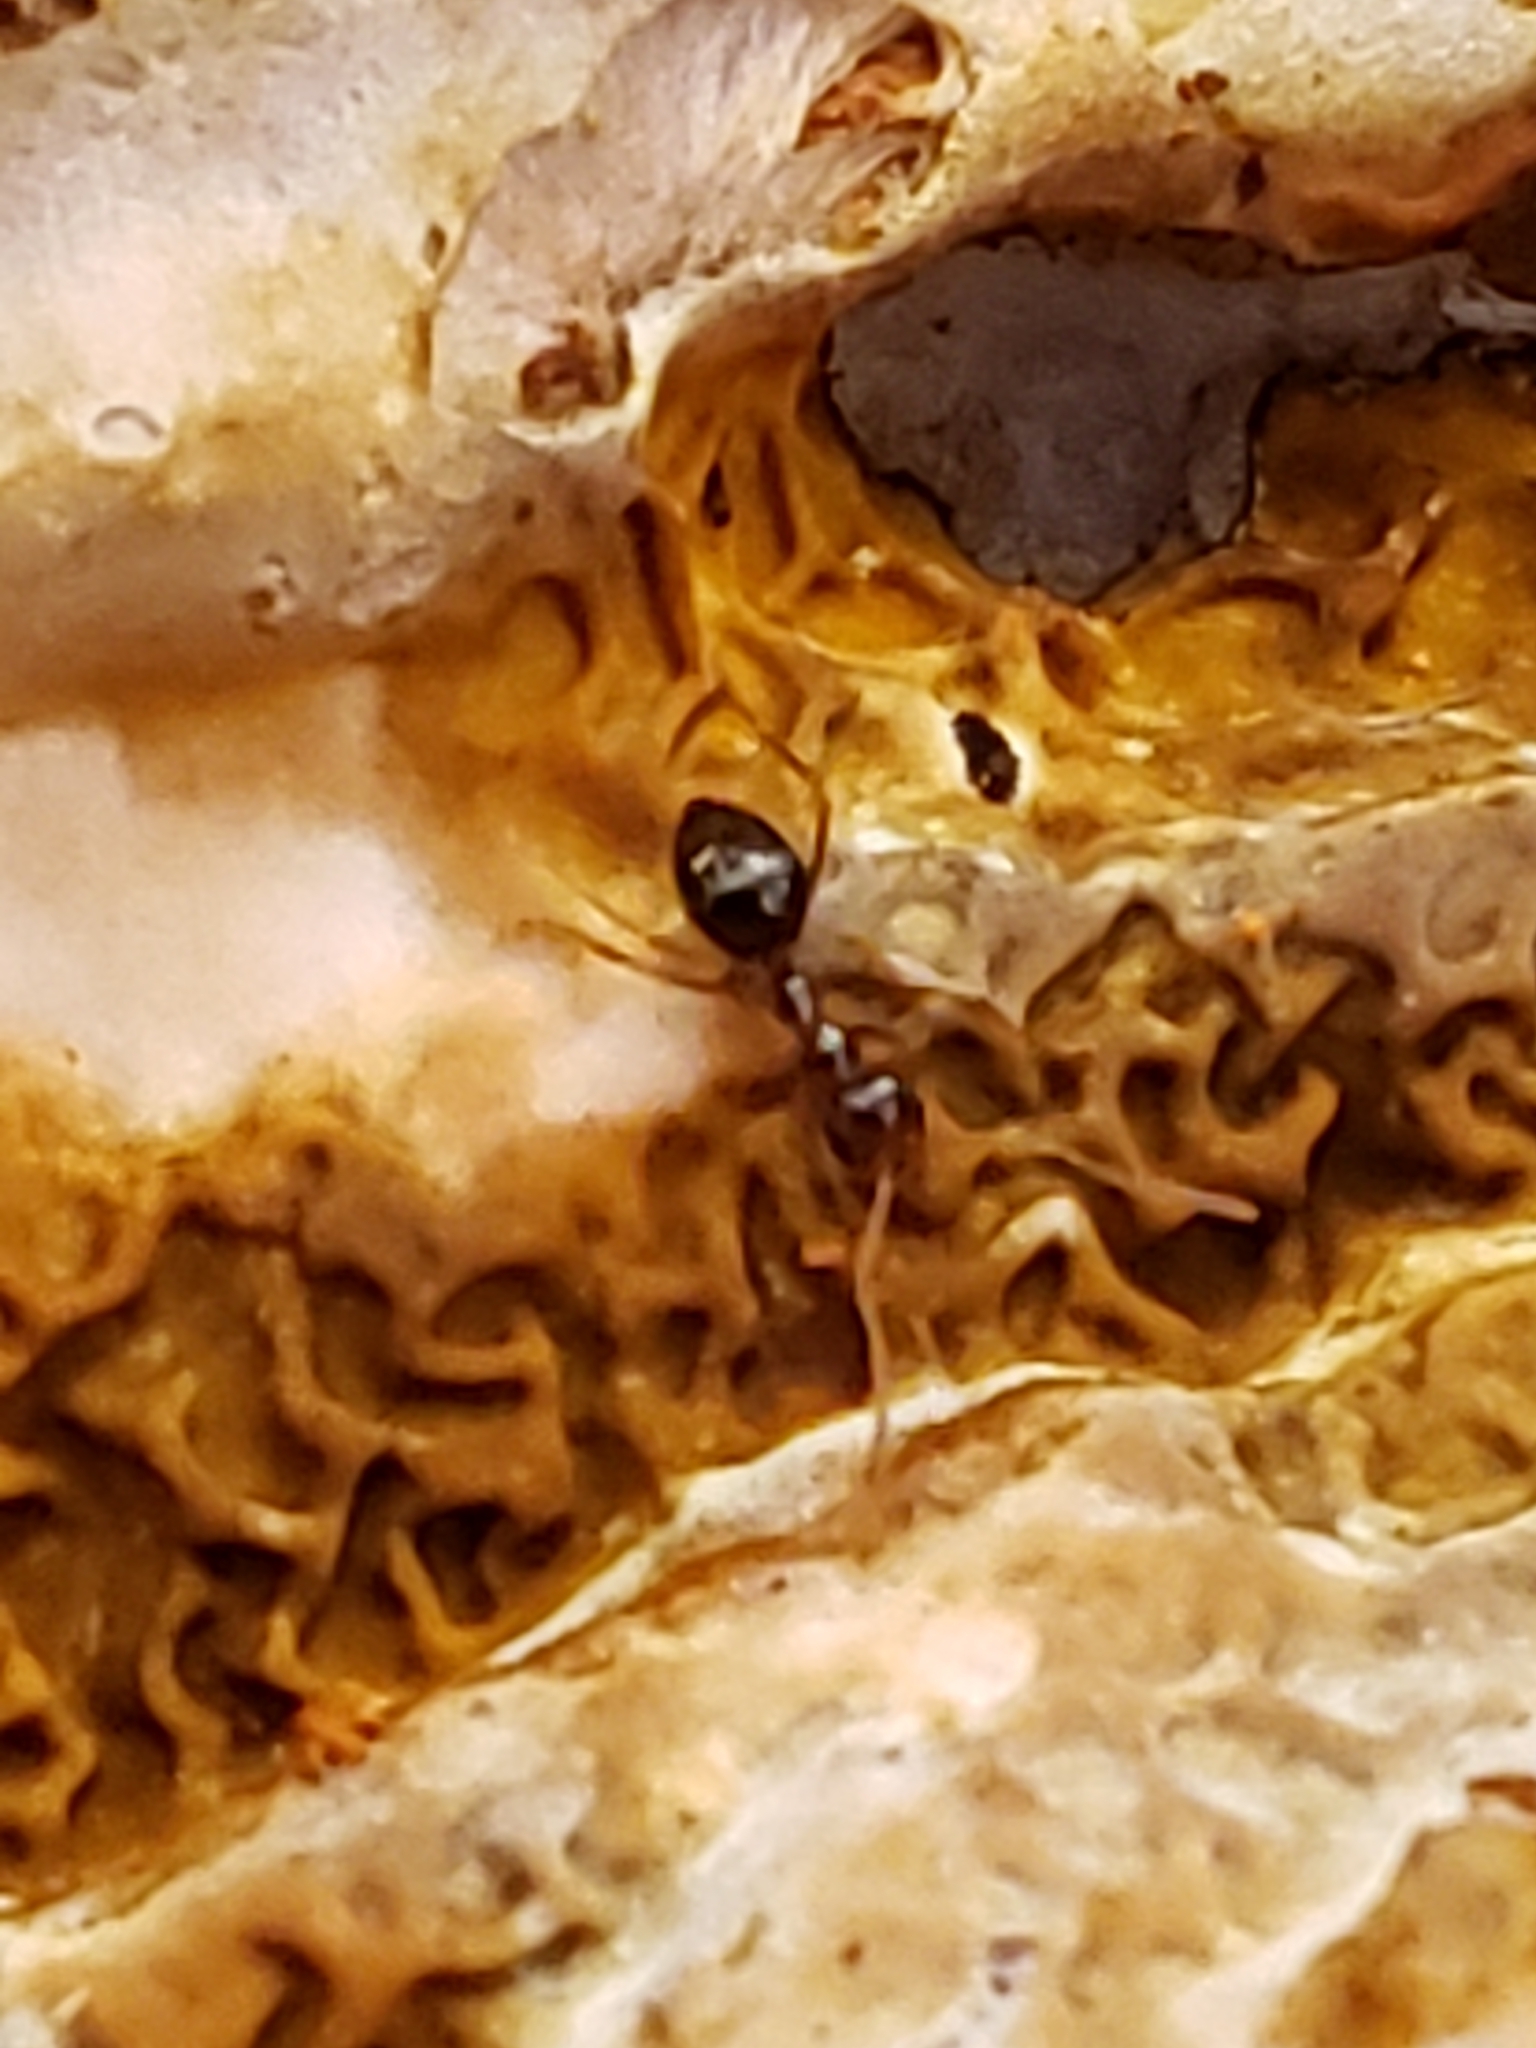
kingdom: Animalia
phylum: Arthropoda
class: Insecta
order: Hymenoptera
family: Formicidae
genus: Prenolepis
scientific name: Prenolepis imparis
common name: Small honey ant
